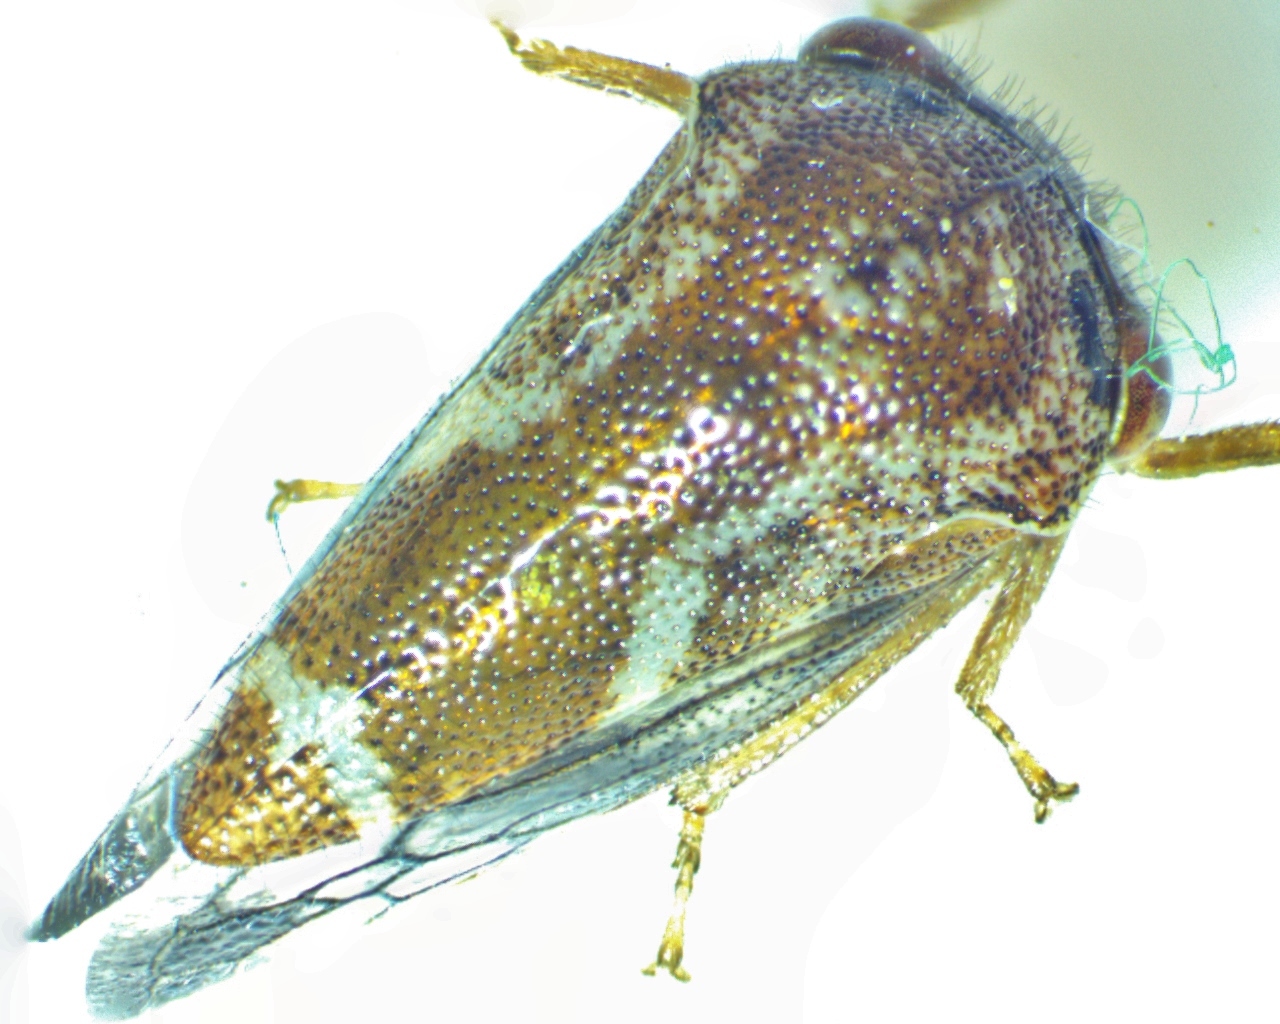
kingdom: Animalia
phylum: Arthropoda
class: Insecta
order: Hemiptera
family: Membracidae
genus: Ophiderma
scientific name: Ophiderma definita
